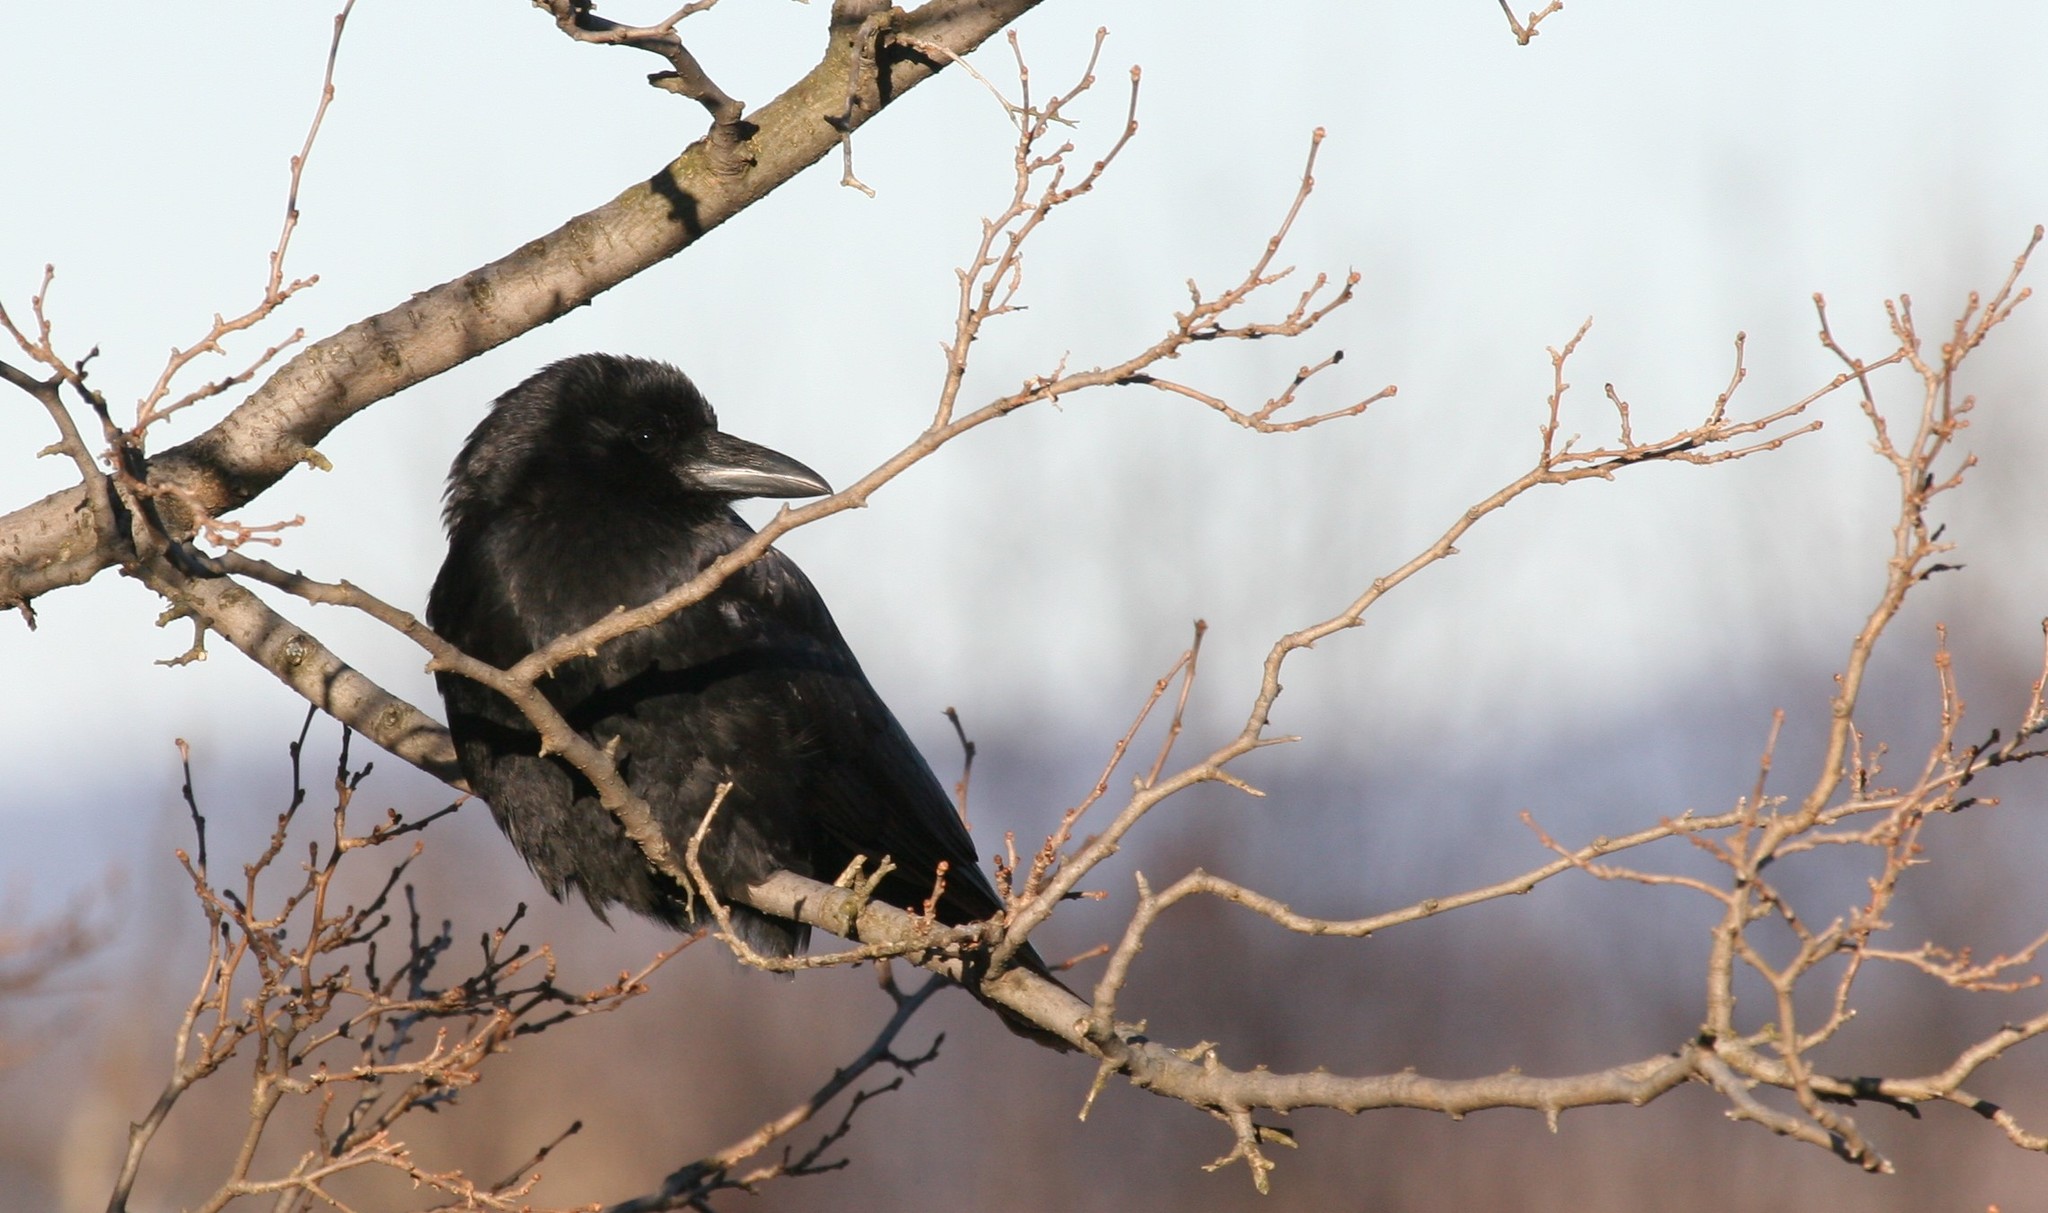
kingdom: Animalia
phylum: Chordata
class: Aves
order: Passeriformes
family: Corvidae
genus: Corvus
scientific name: Corvus brachyrhynchos
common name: American crow
